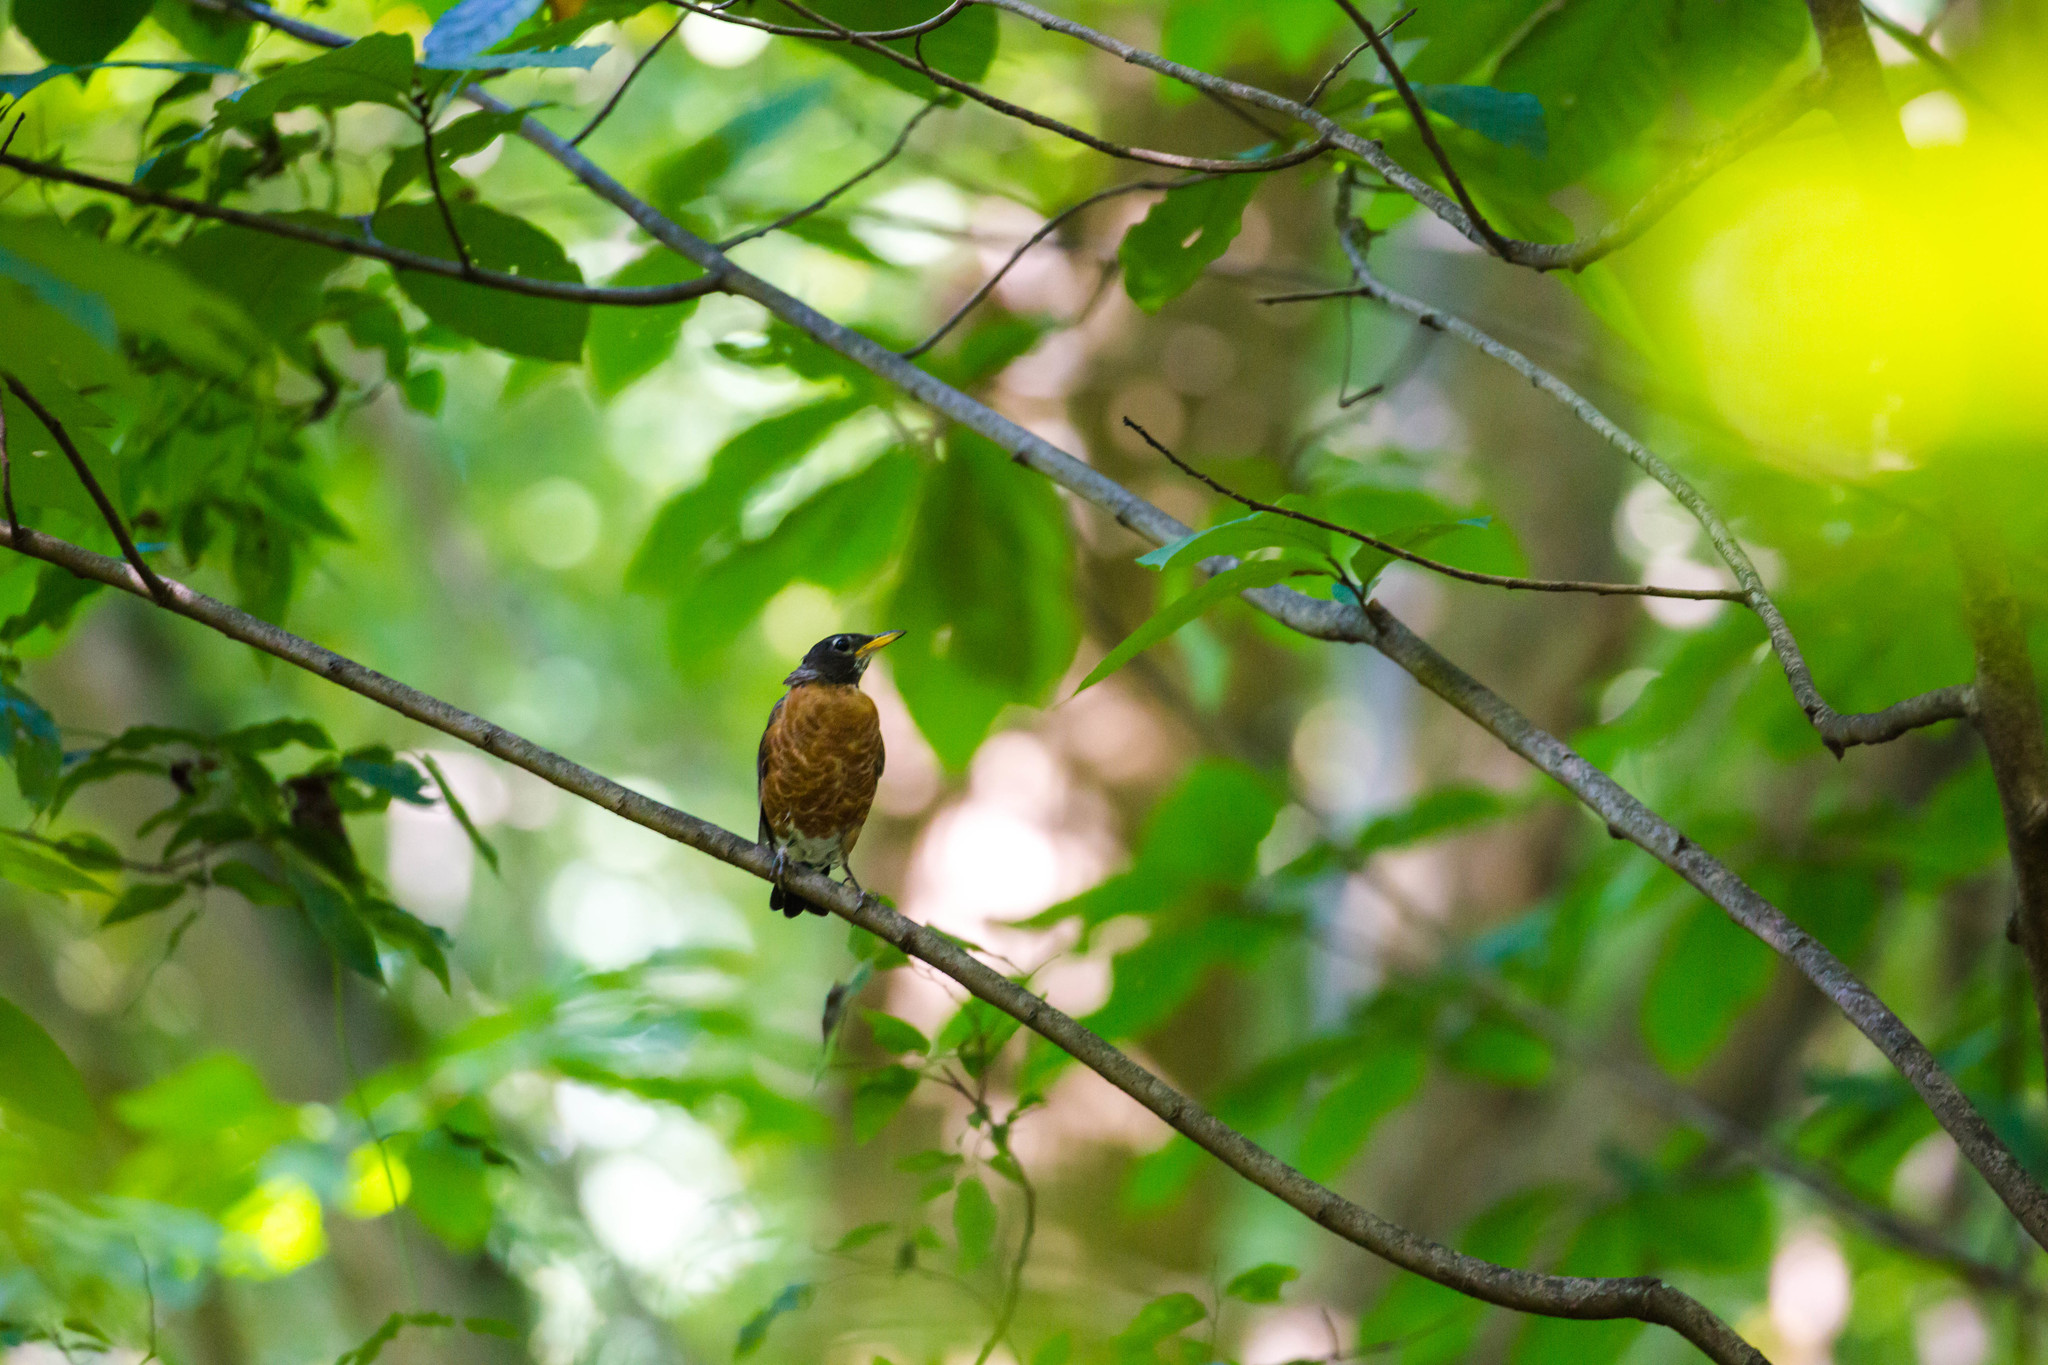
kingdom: Animalia
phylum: Chordata
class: Aves
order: Passeriformes
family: Turdidae
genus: Turdus
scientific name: Turdus migratorius
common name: American robin
